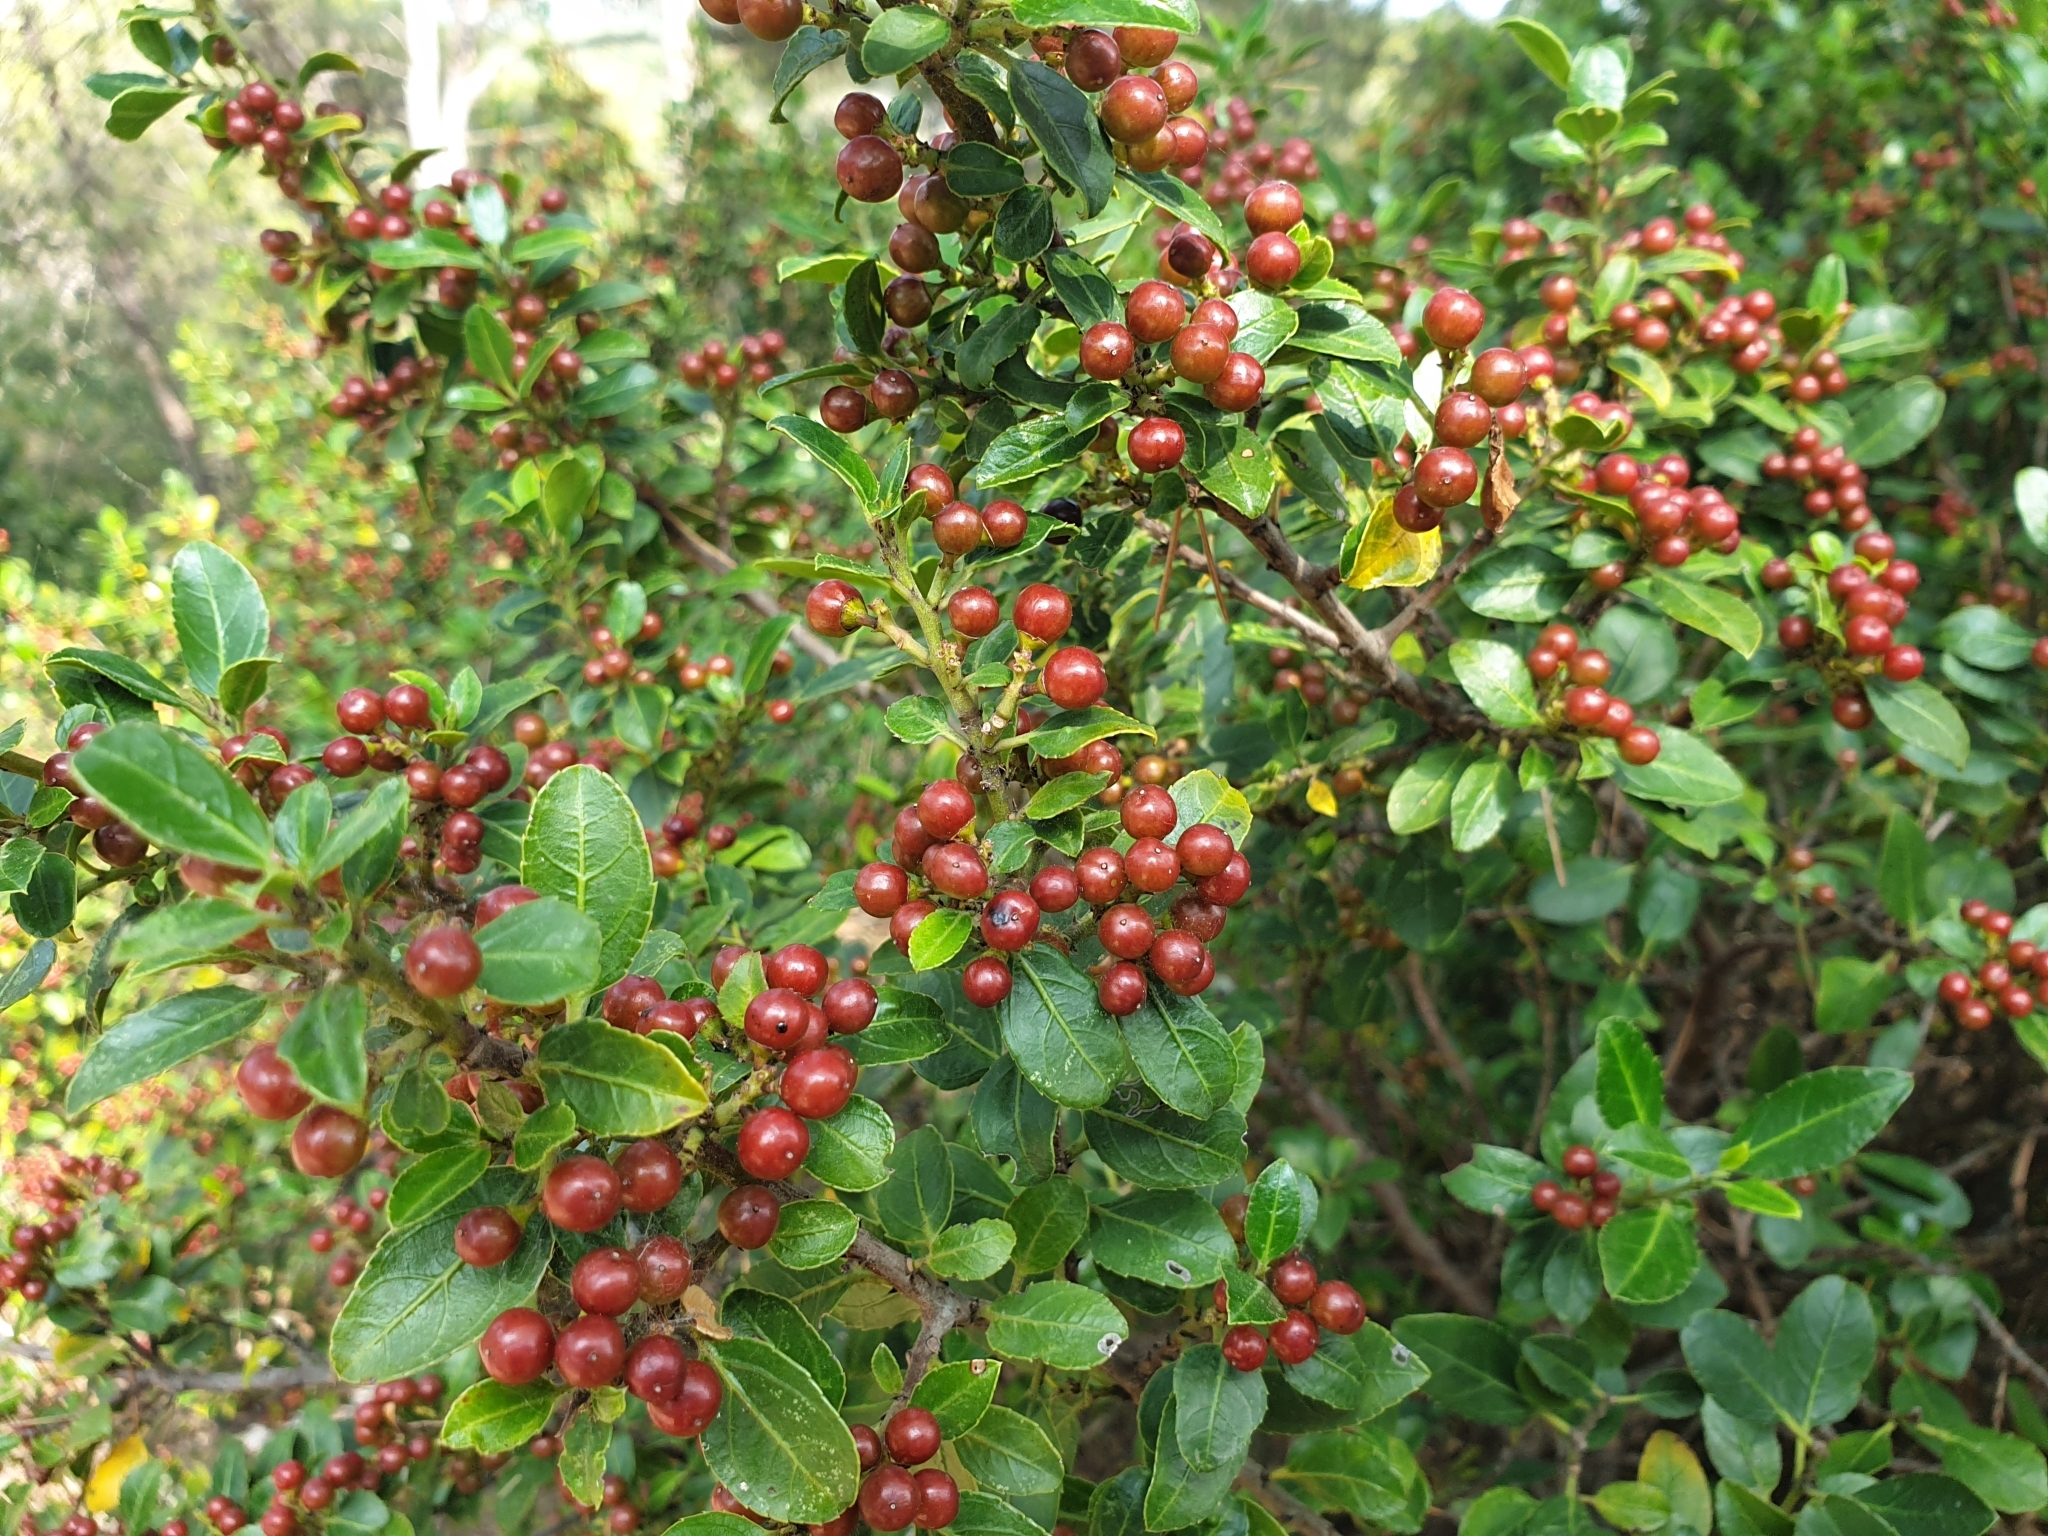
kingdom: Plantae
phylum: Tracheophyta
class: Magnoliopsida
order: Rosales
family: Rhamnaceae
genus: Rhamnus
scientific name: Rhamnus alaternus
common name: Mediterranean buckthorn
